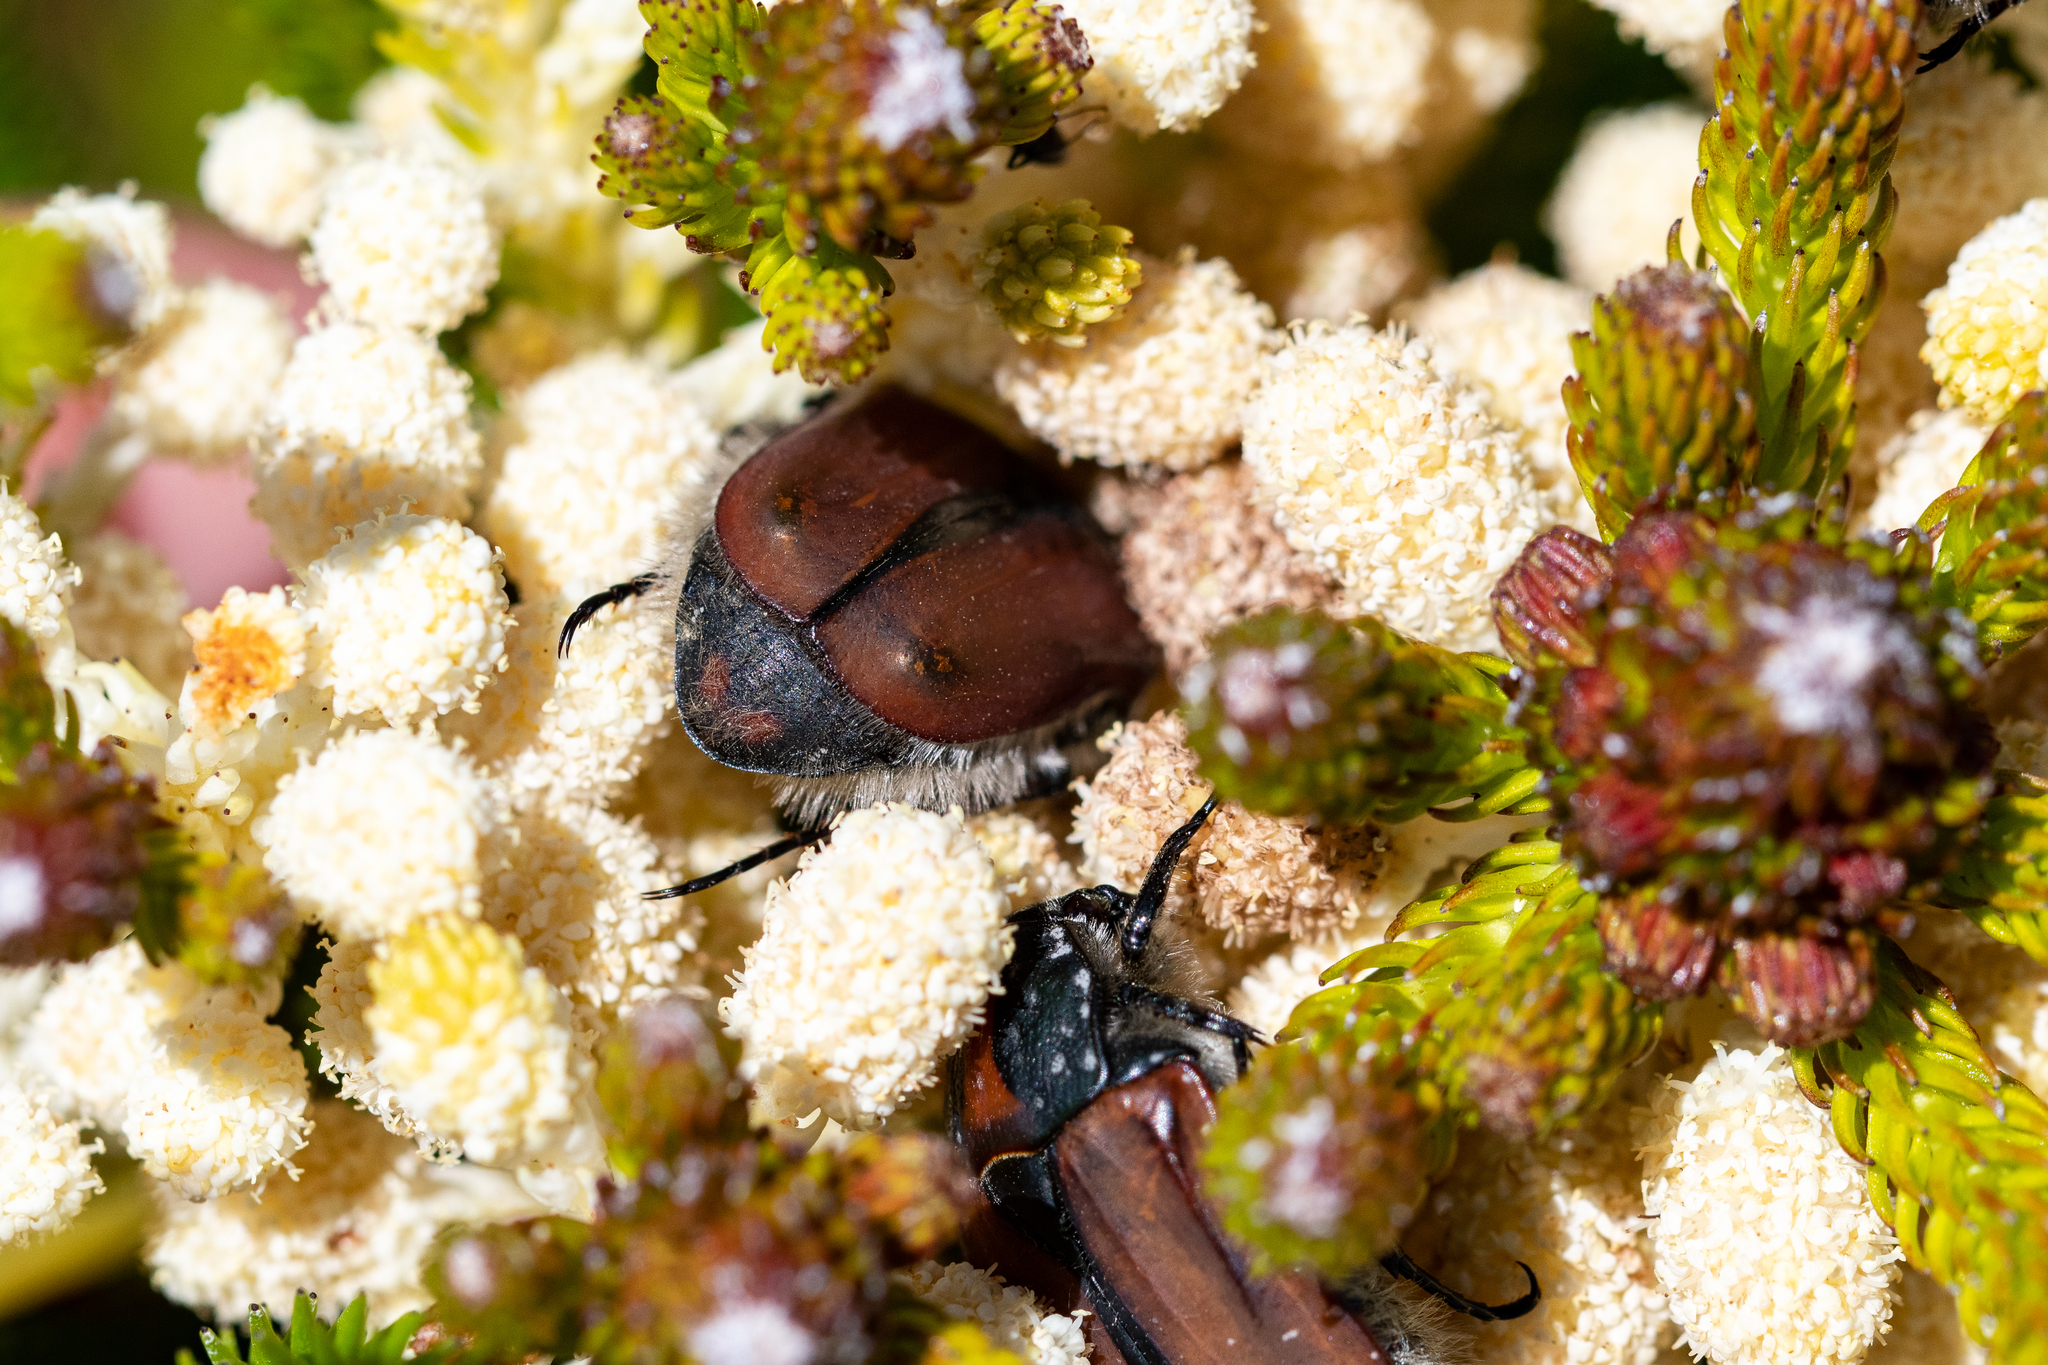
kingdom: Animalia
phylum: Arthropoda
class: Insecta
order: Coleoptera
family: Scarabaeidae
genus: Trichostetha
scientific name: Trichostetha capensis
